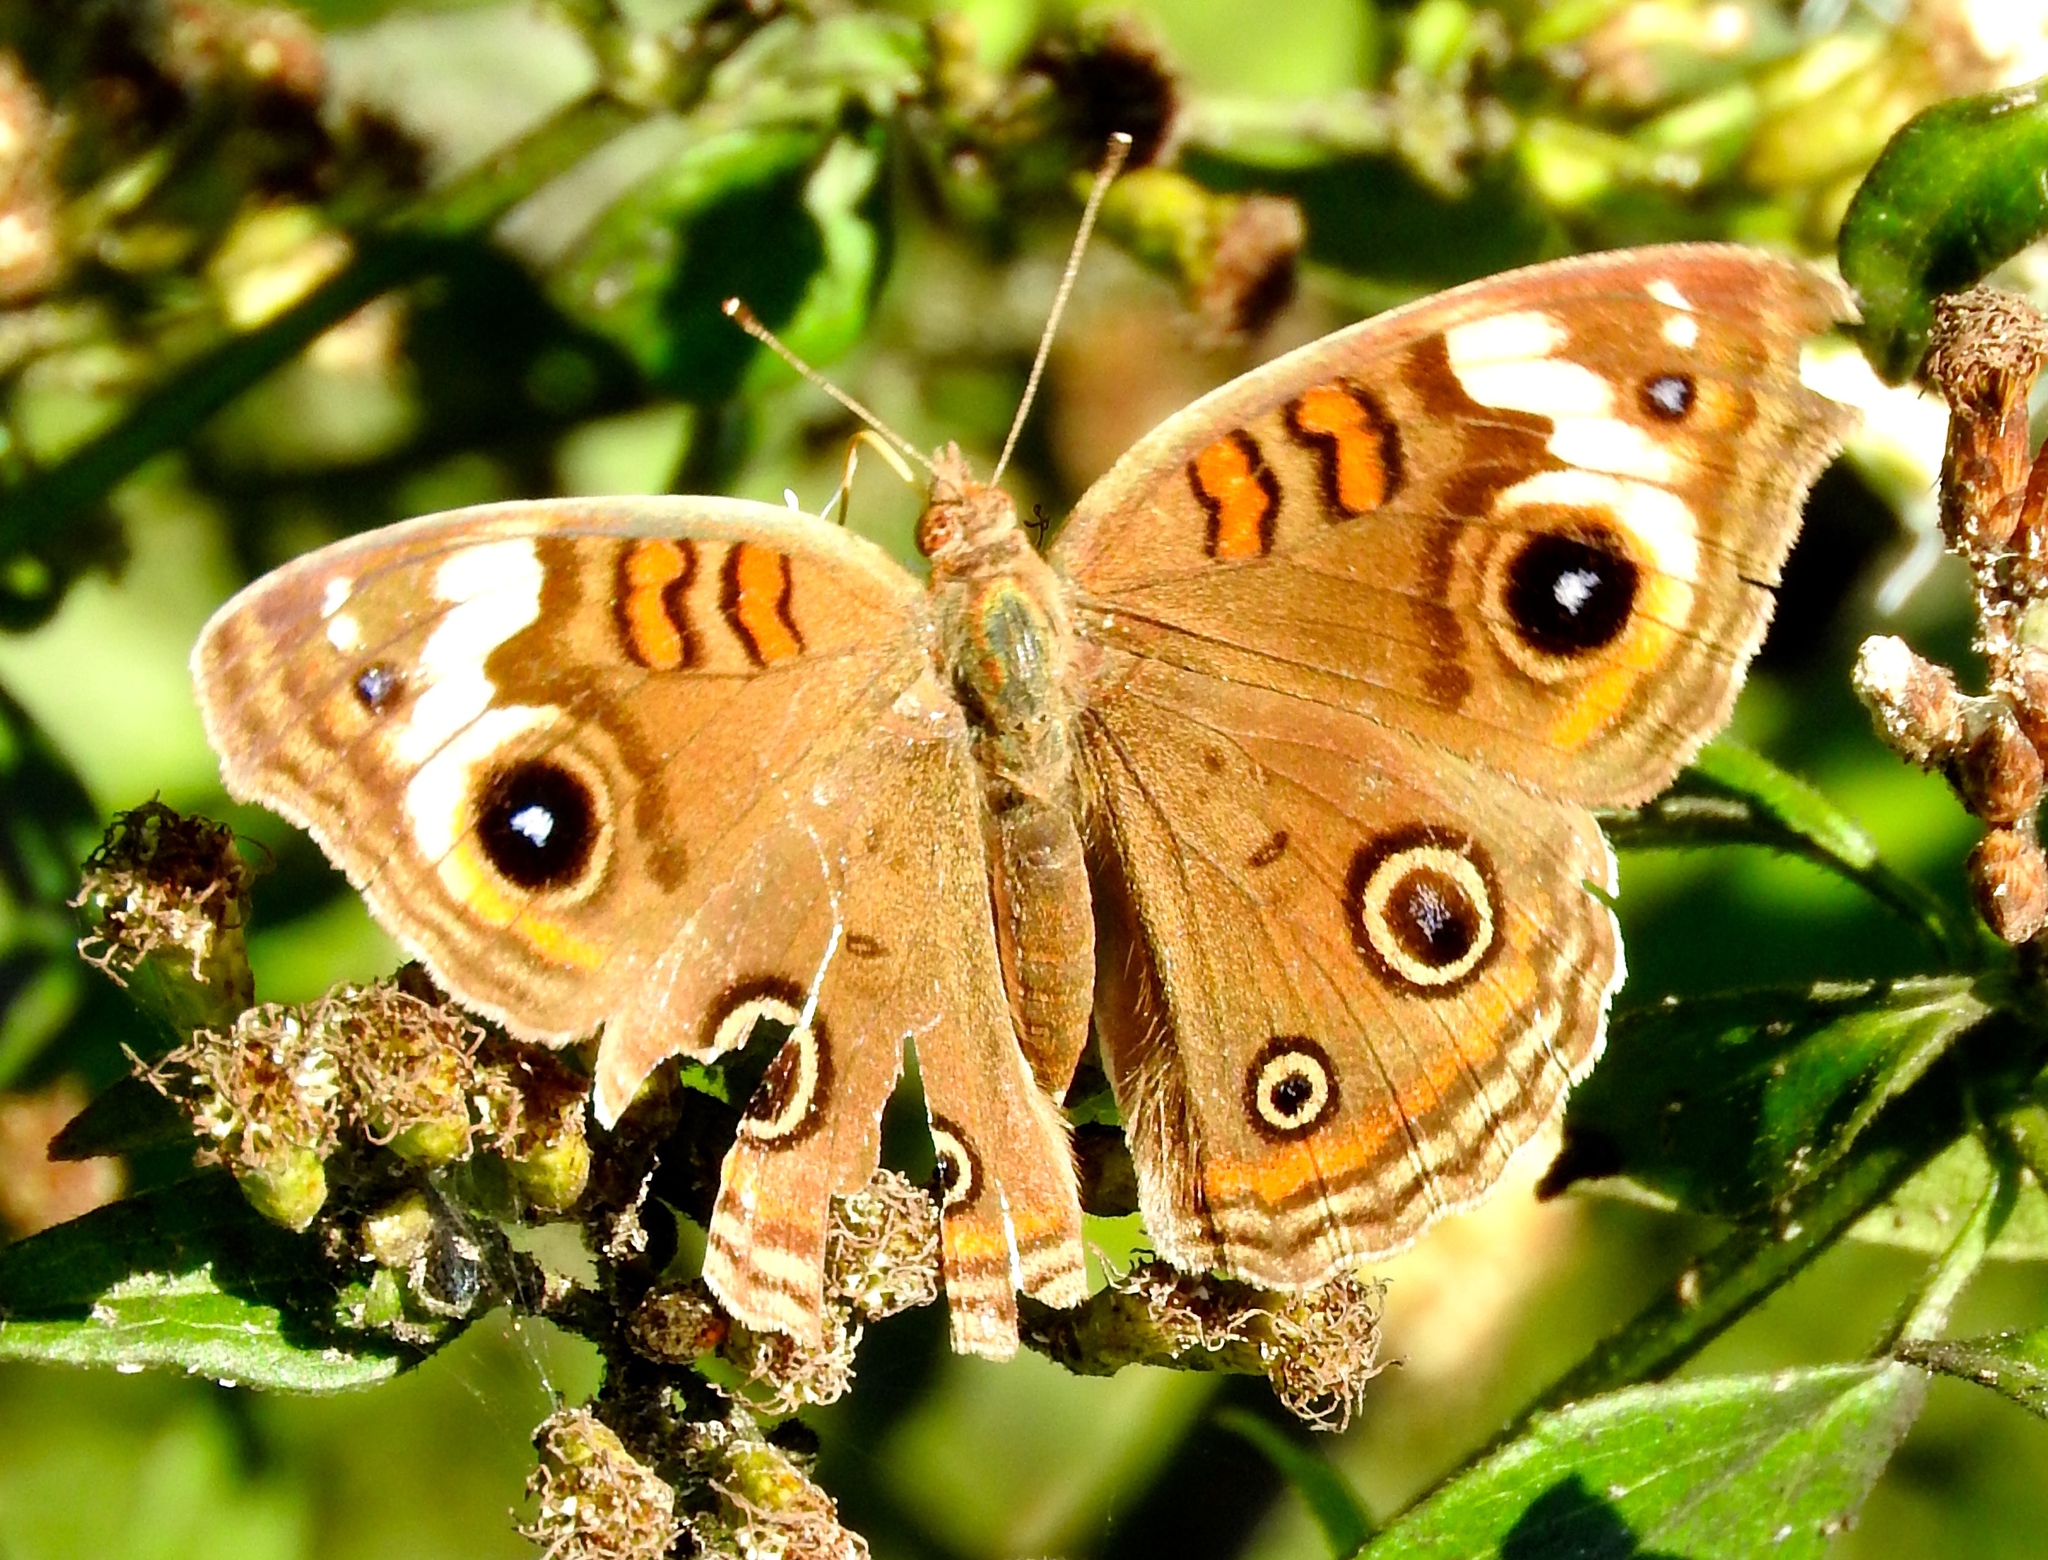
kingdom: Animalia
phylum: Arthropoda
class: Insecta
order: Lepidoptera
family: Nymphalidae
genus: Junonia
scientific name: Junonia coenia
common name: Common buckeye
